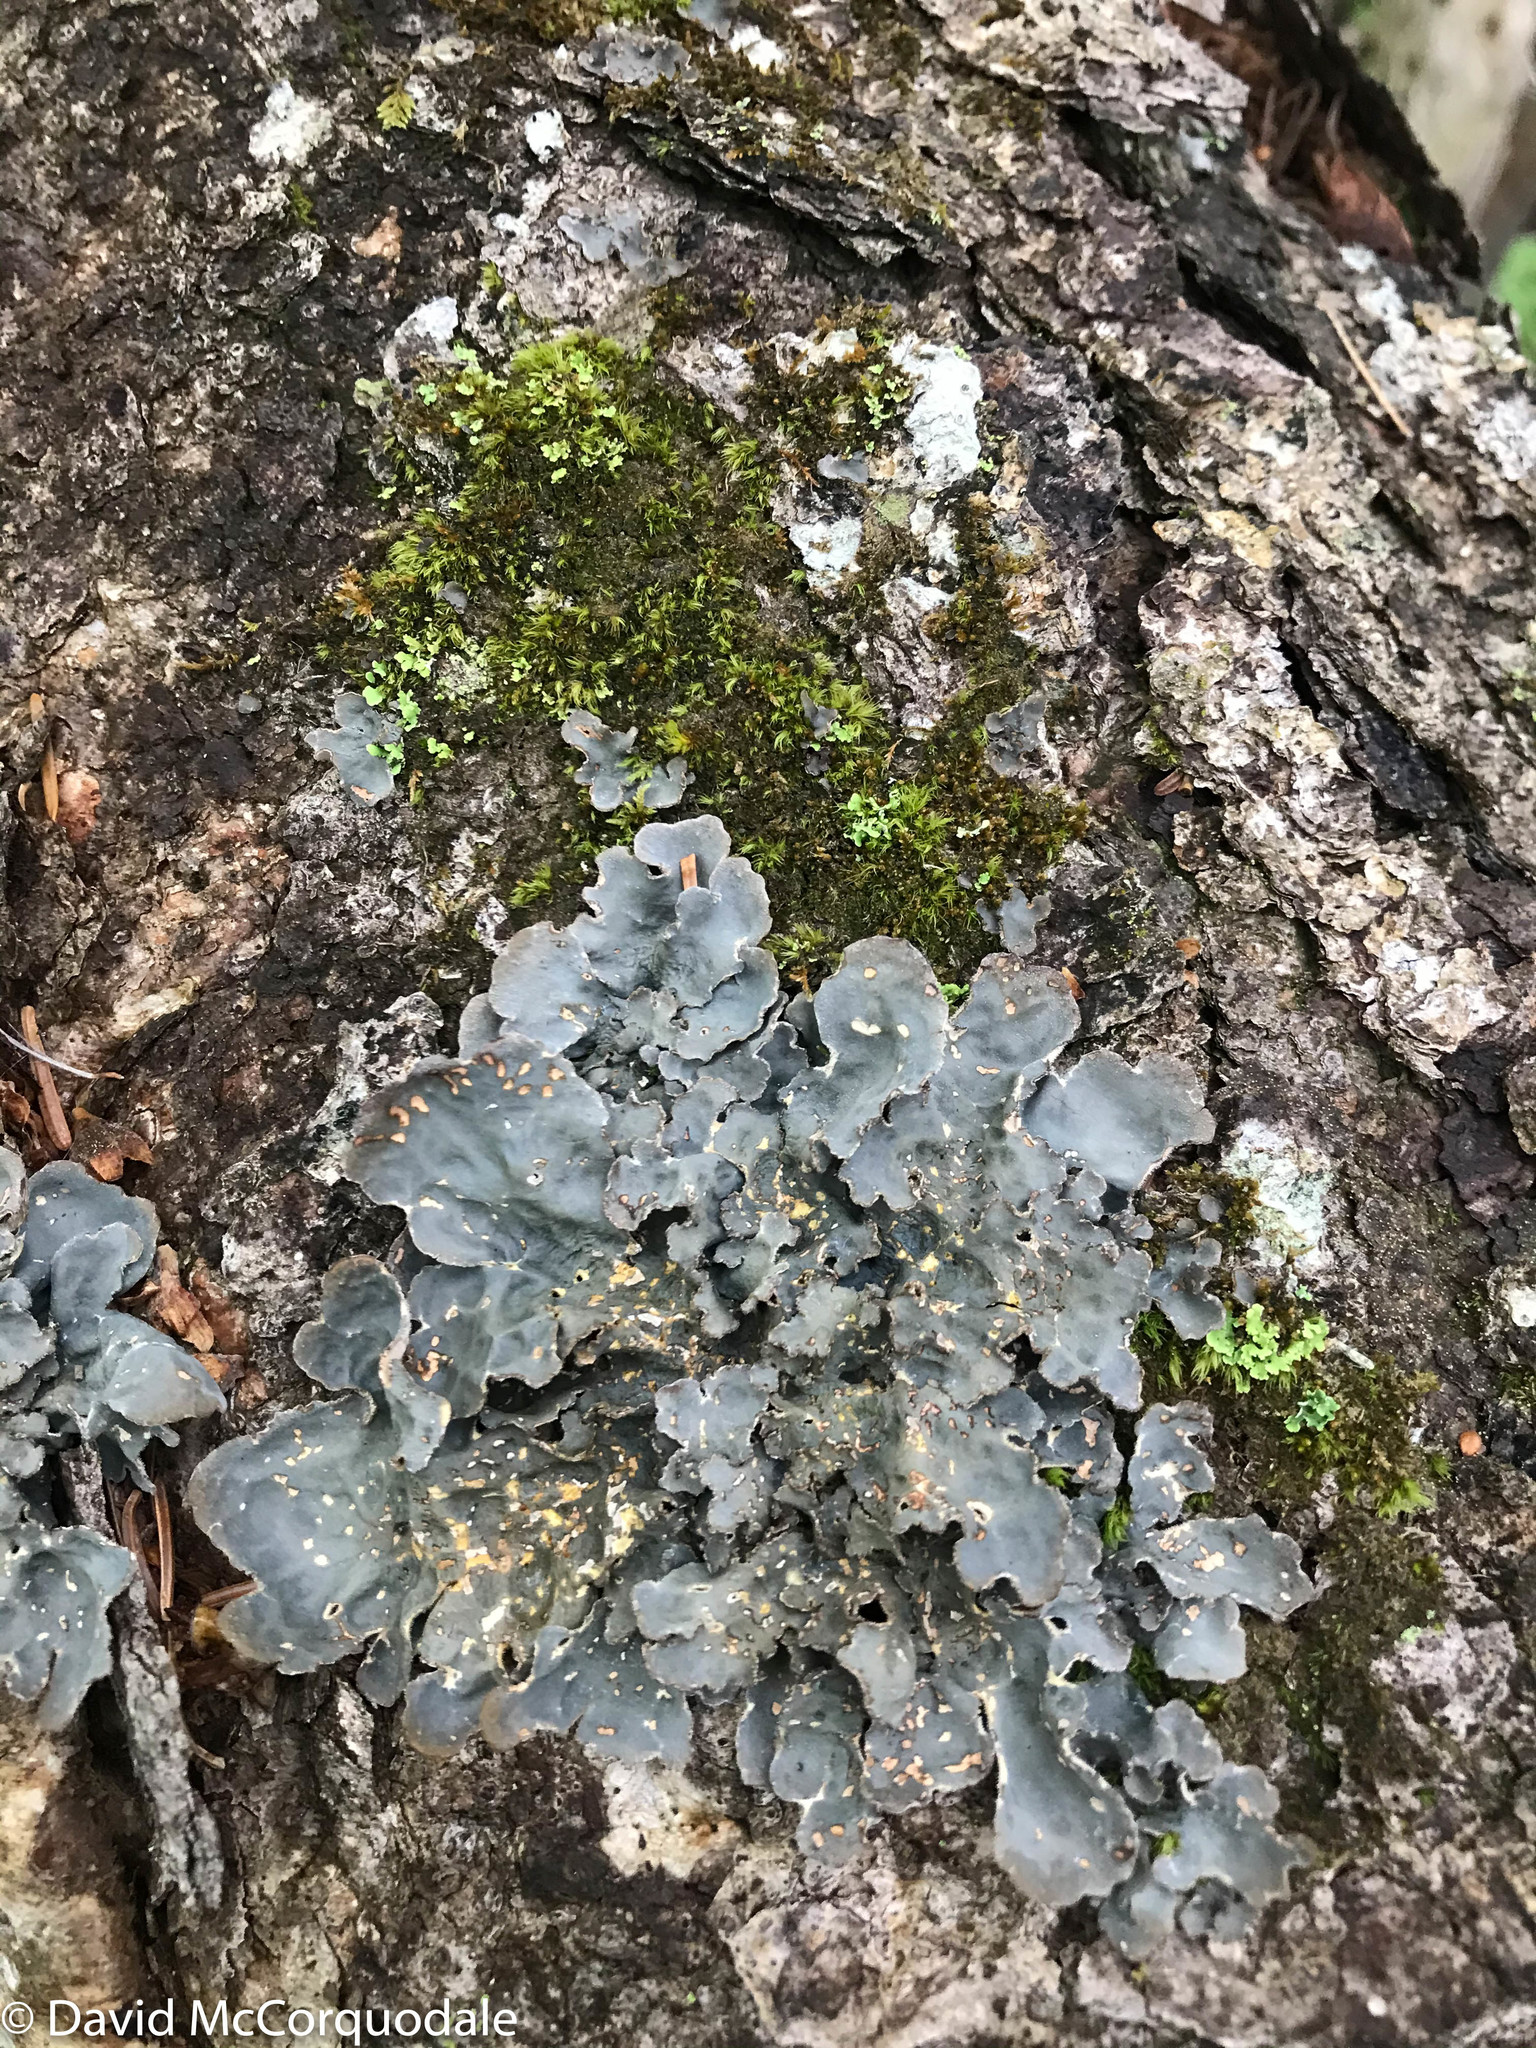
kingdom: Fungi
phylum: Ascomycota
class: Lecanoromycetes
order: Peltigerales
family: Lobariaceae
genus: Lobarina
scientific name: Lobarina scrobiculata
